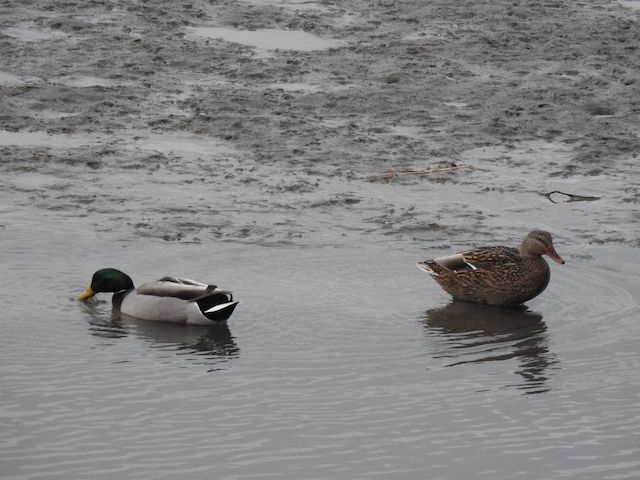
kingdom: Animalia
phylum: Chordata
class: Aves
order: Anseriformes
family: Anatidae
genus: Anas
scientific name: Anas platyrhynchos
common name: Mallard
